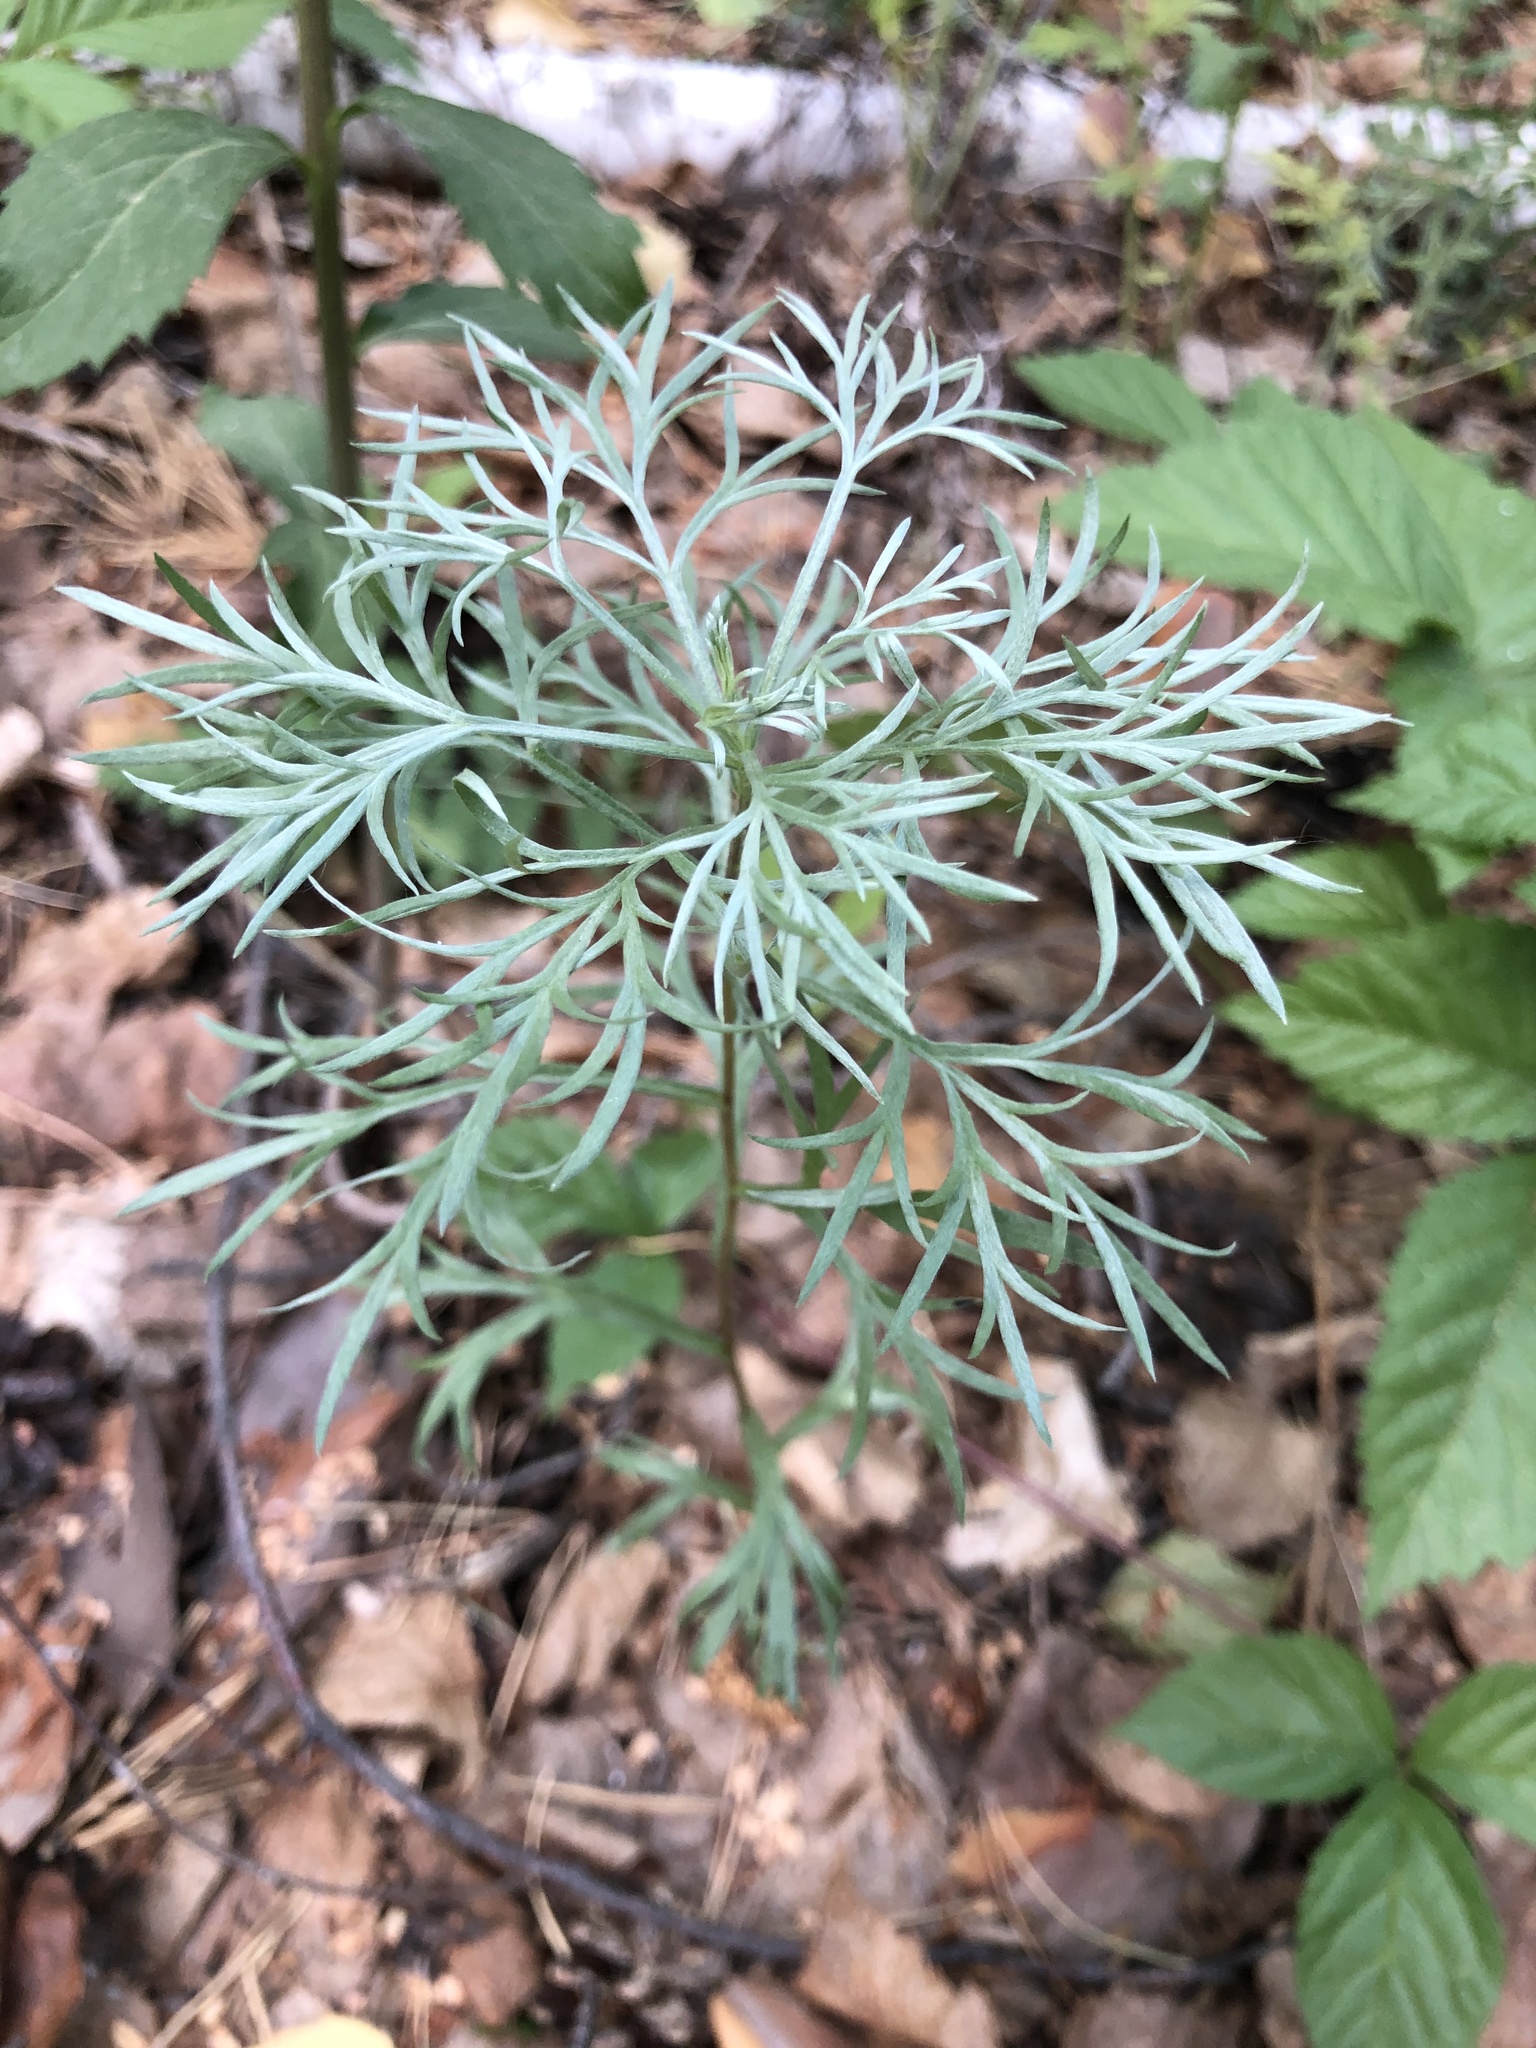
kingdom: Plantae
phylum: Tracheophyta
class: Magnoliopsida
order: Asterales
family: Asteraceae
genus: Artemisia
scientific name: Artemisia sericea
